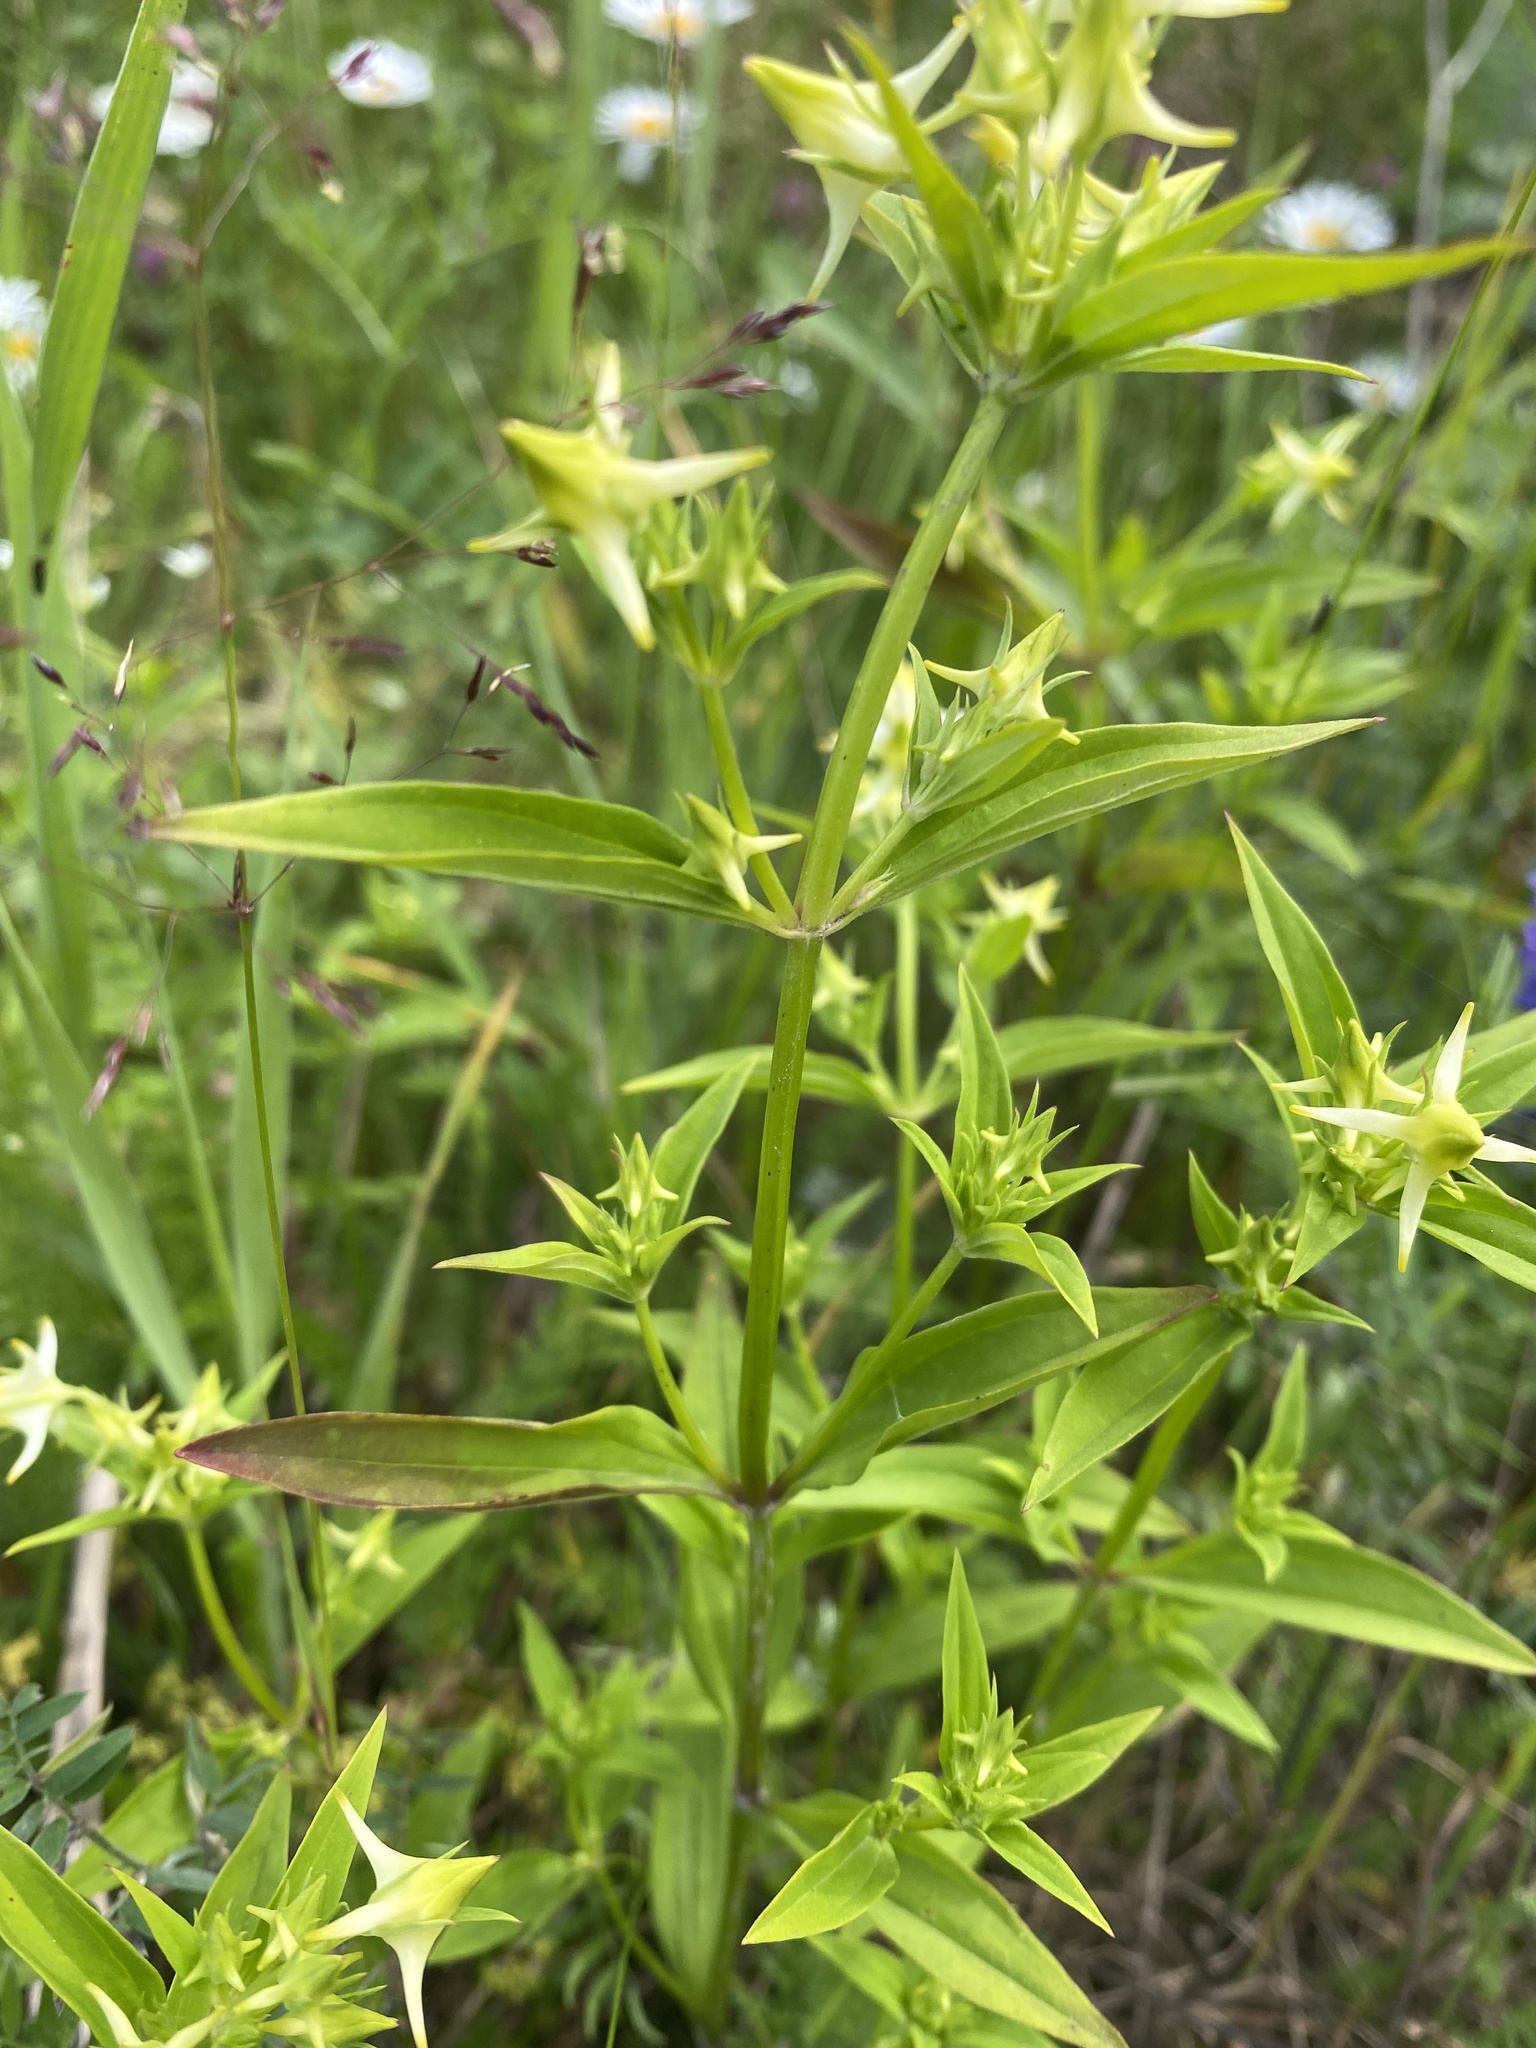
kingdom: Plantae
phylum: Tracheophyta
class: Magnoliopsida
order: Gentianales
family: Gentianaceae
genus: Halenia
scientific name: Halenia corniculata
